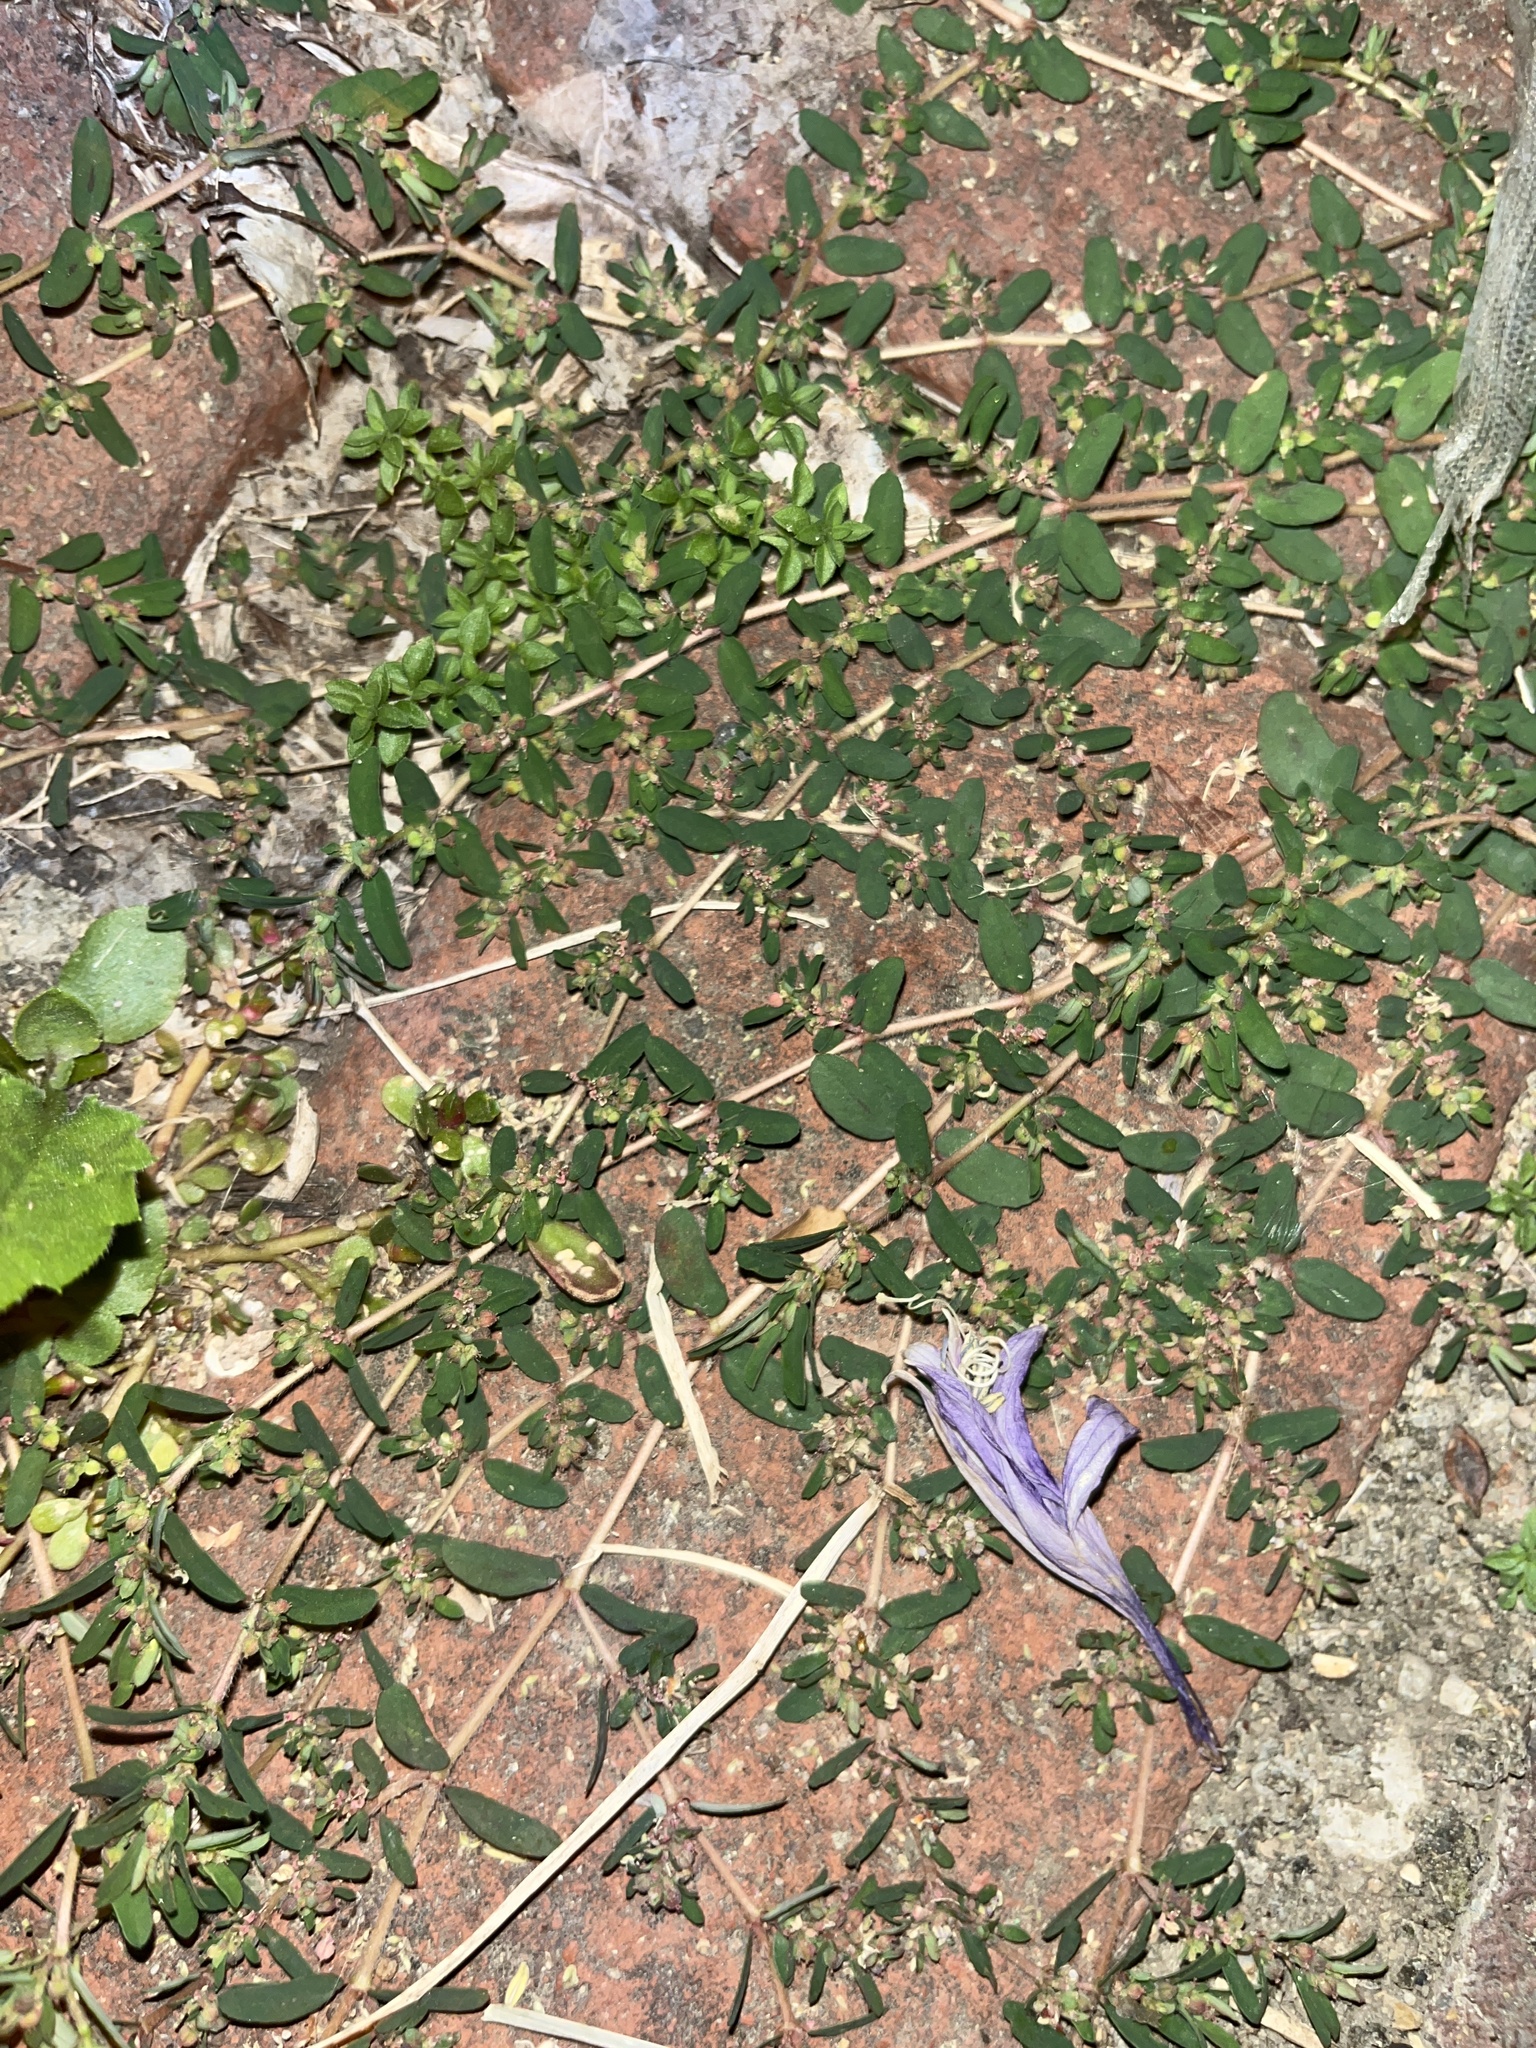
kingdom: Plantae
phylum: Tracheophyta
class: Magnoliopsida
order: Malpighiales
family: Euphorbiaceae
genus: Euphorbia
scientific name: Euphorbia maculata
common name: Spotted spurge
